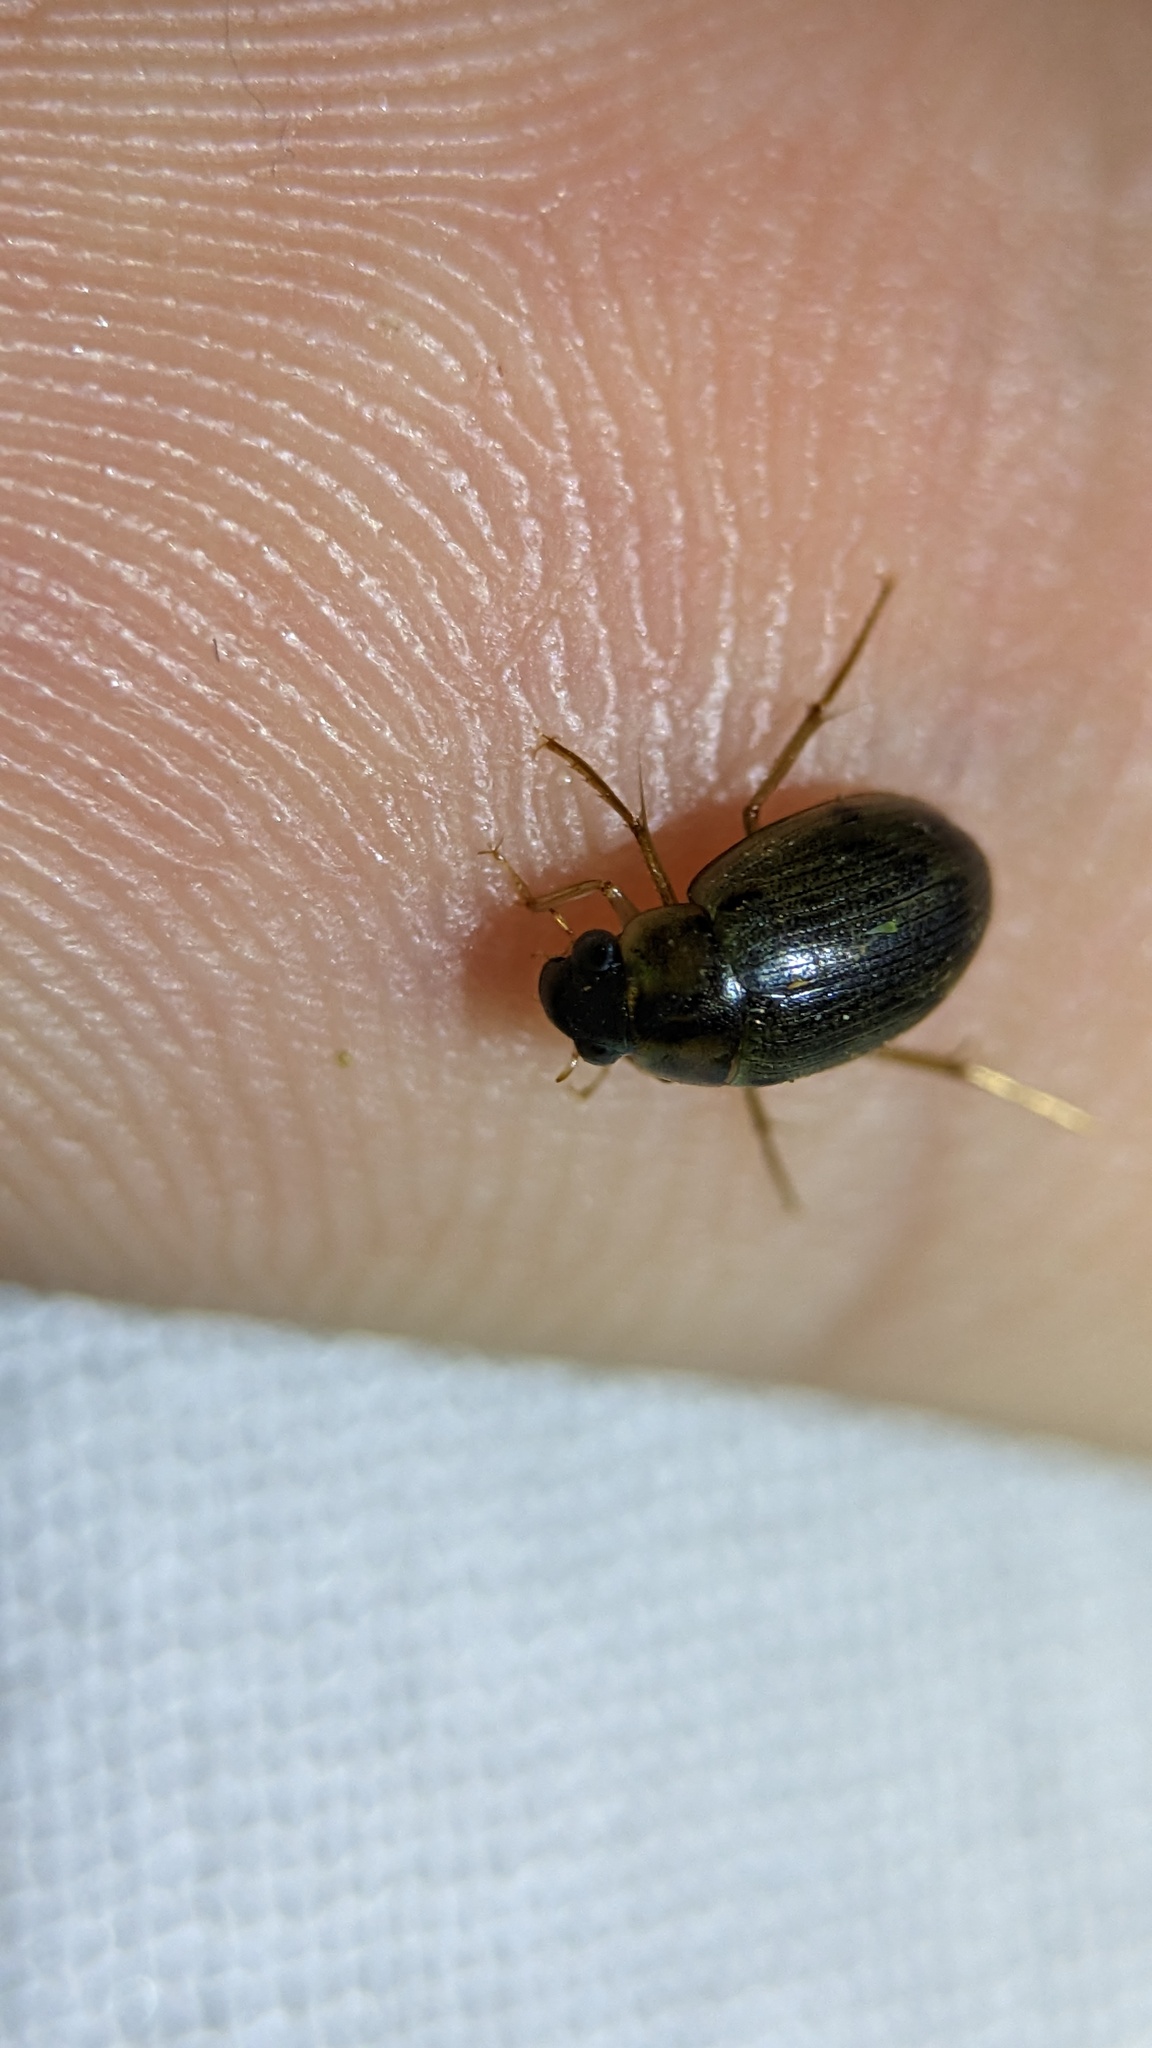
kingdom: Animalia
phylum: Arthropoda
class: Insecta
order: Coleoptera
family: Hydrophilidae
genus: Berosus
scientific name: Berosus
